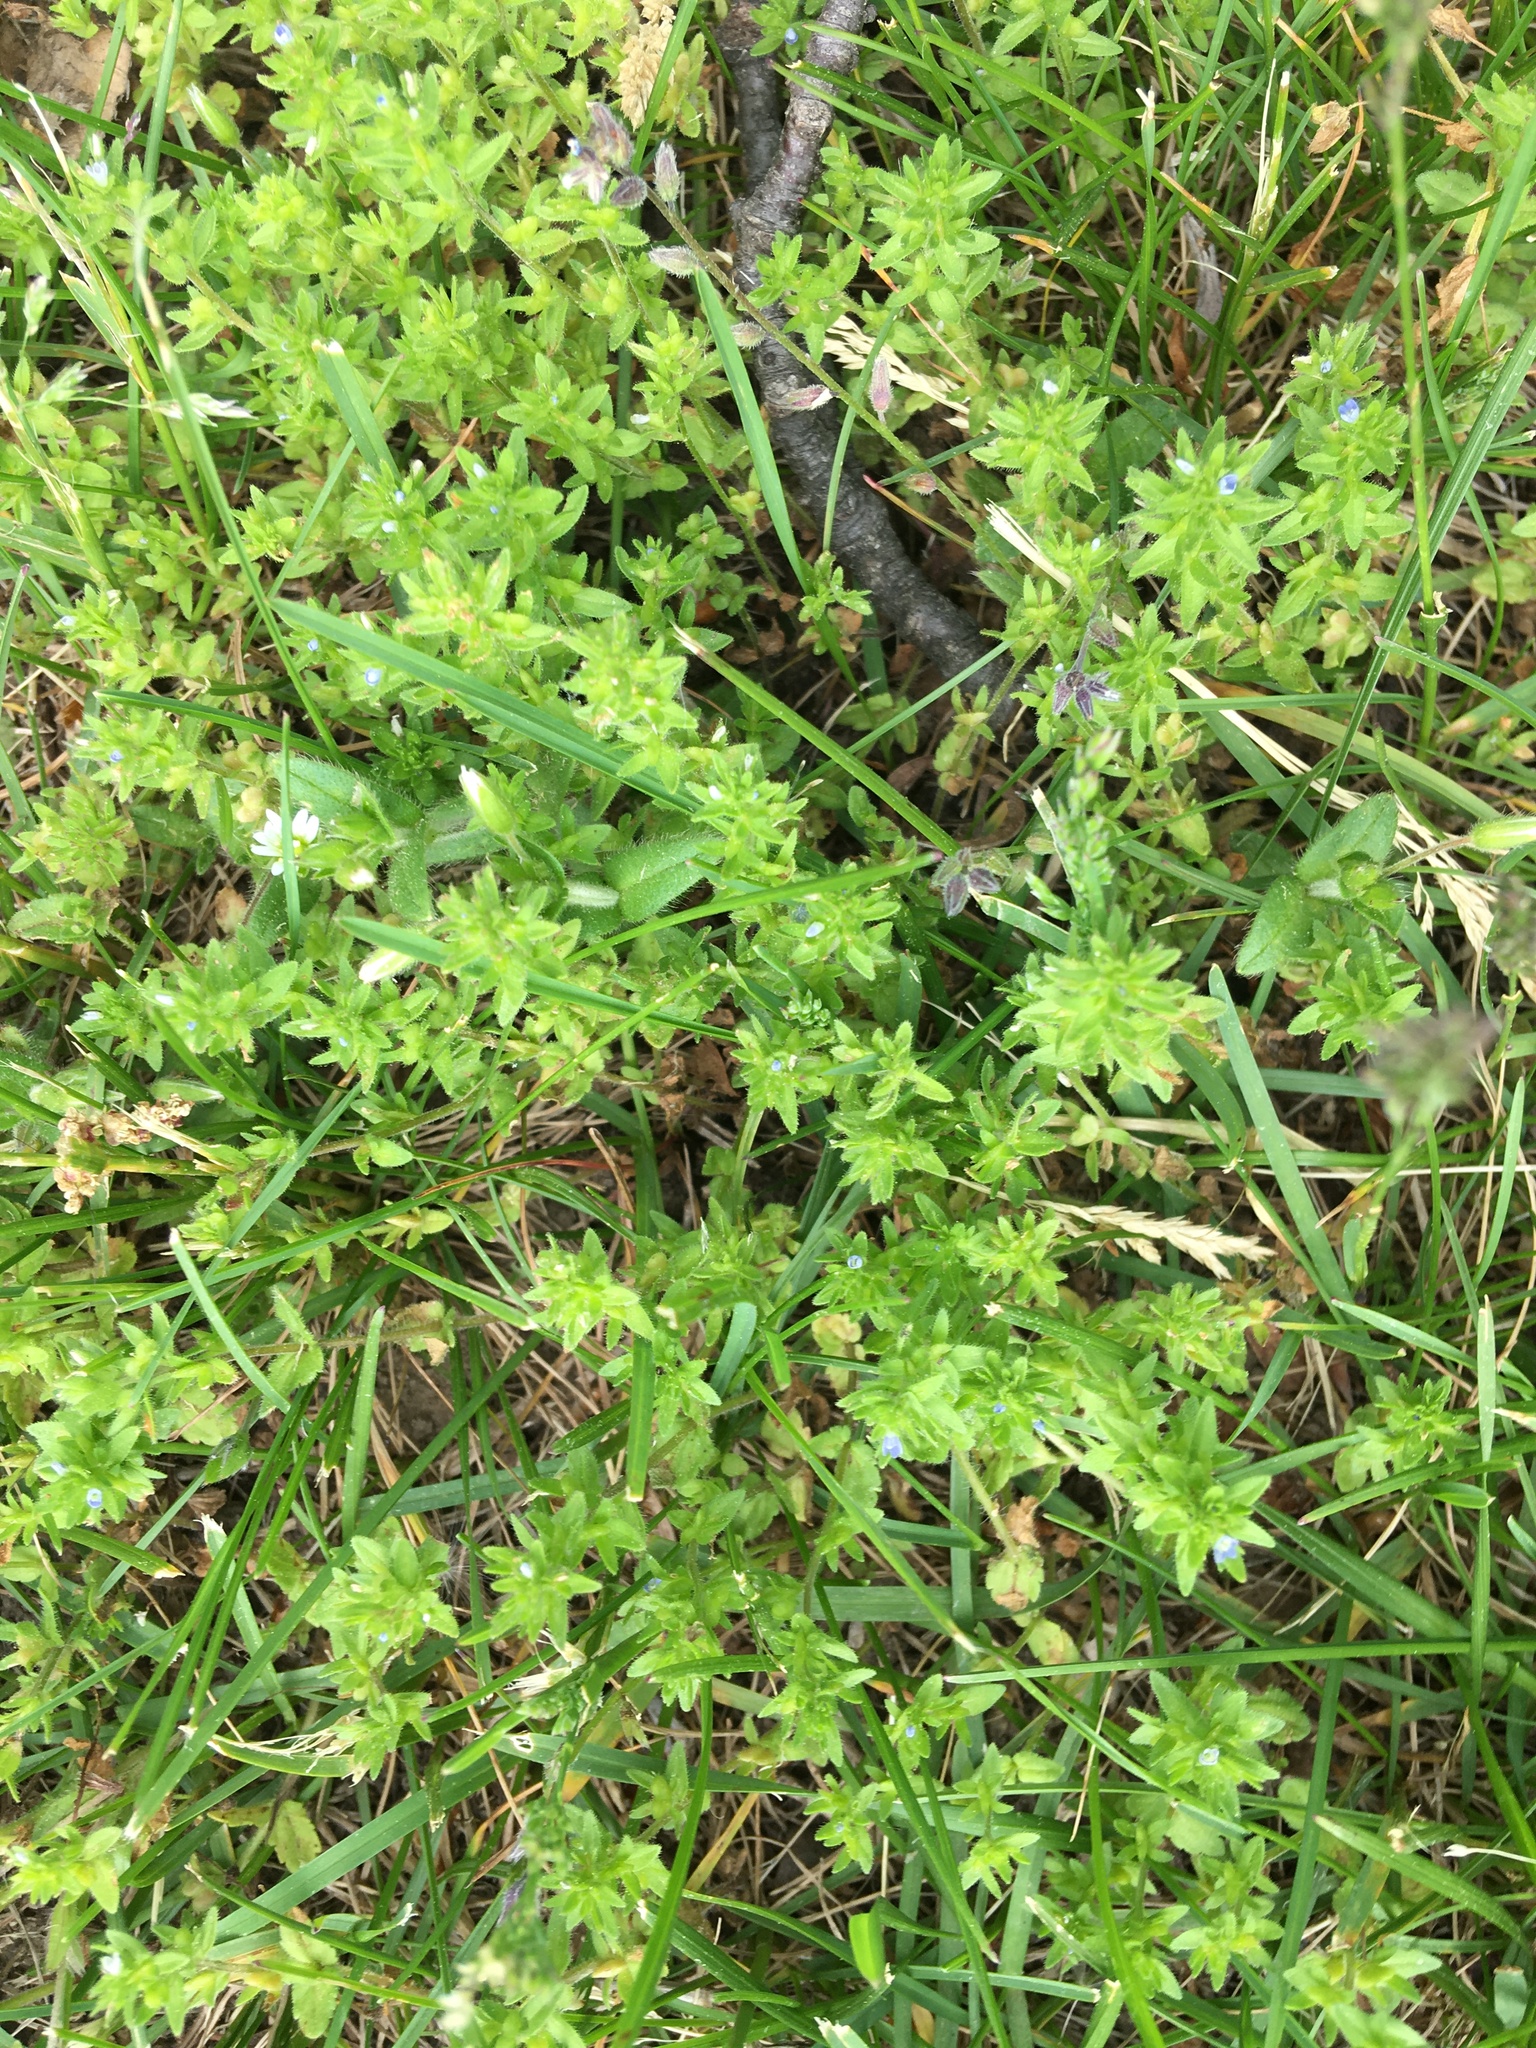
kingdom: Plantae
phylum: Tracheophyta
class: Magnoliopsida
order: Lamiales
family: Plantaginaceae
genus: Veronica
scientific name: Veronica arvensis
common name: Corn speedwell
